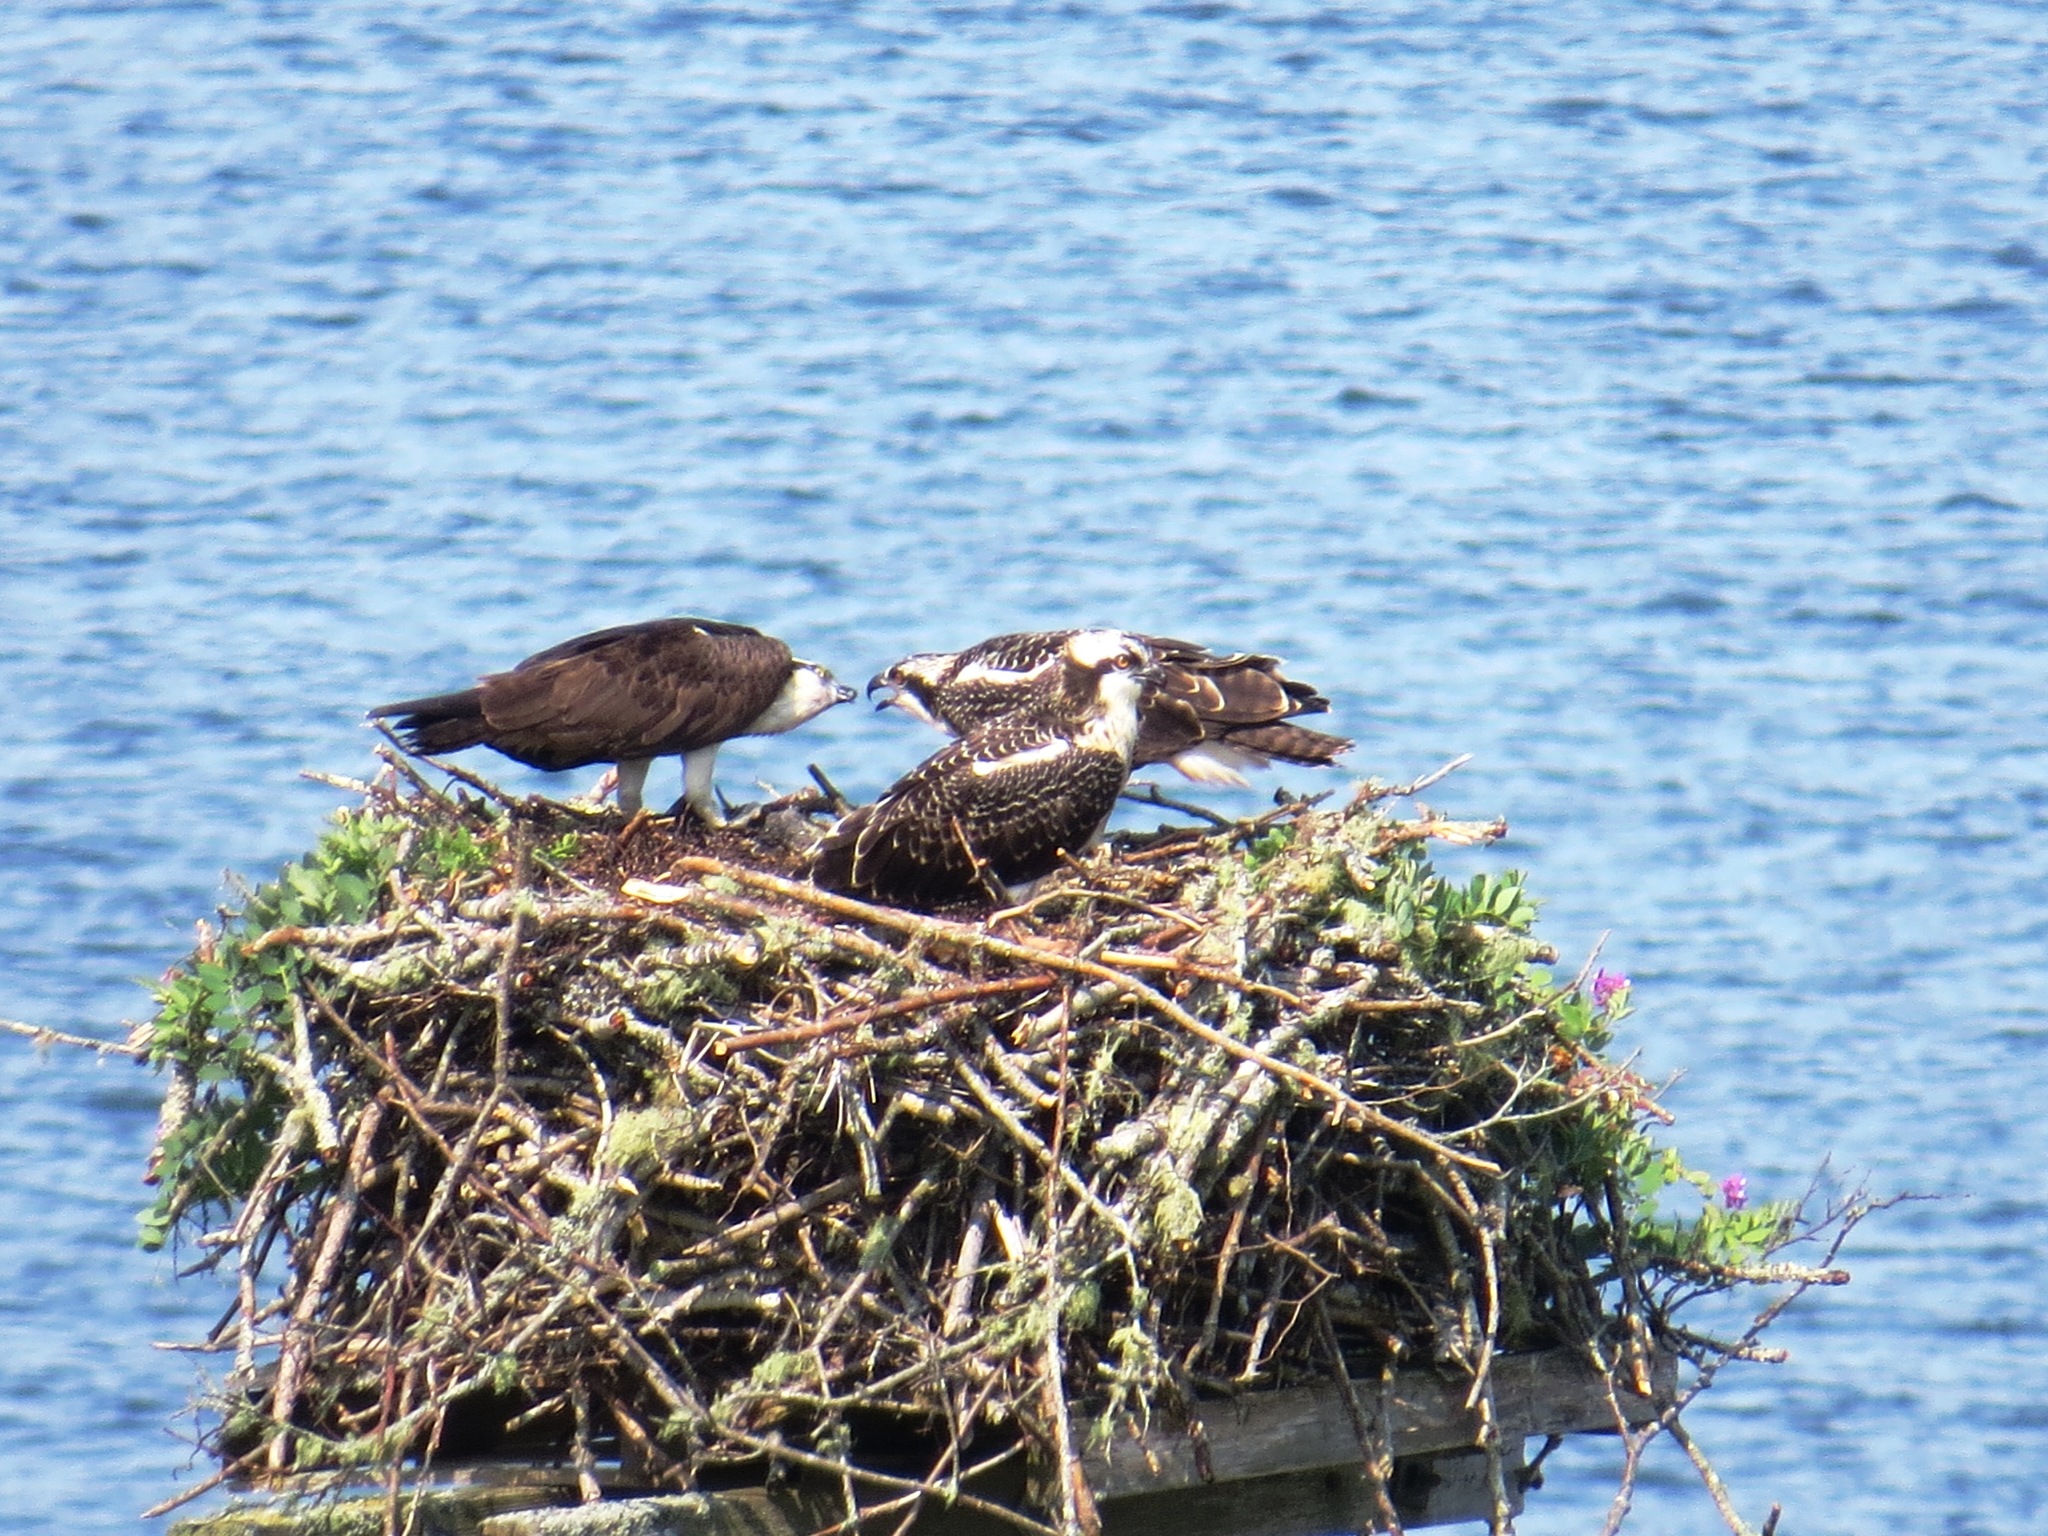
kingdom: Animalia
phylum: Chordata
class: Aves
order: Accipitriformes
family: Pandionidae
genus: Pandion
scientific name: Pandion haliaetus
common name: Osprey
